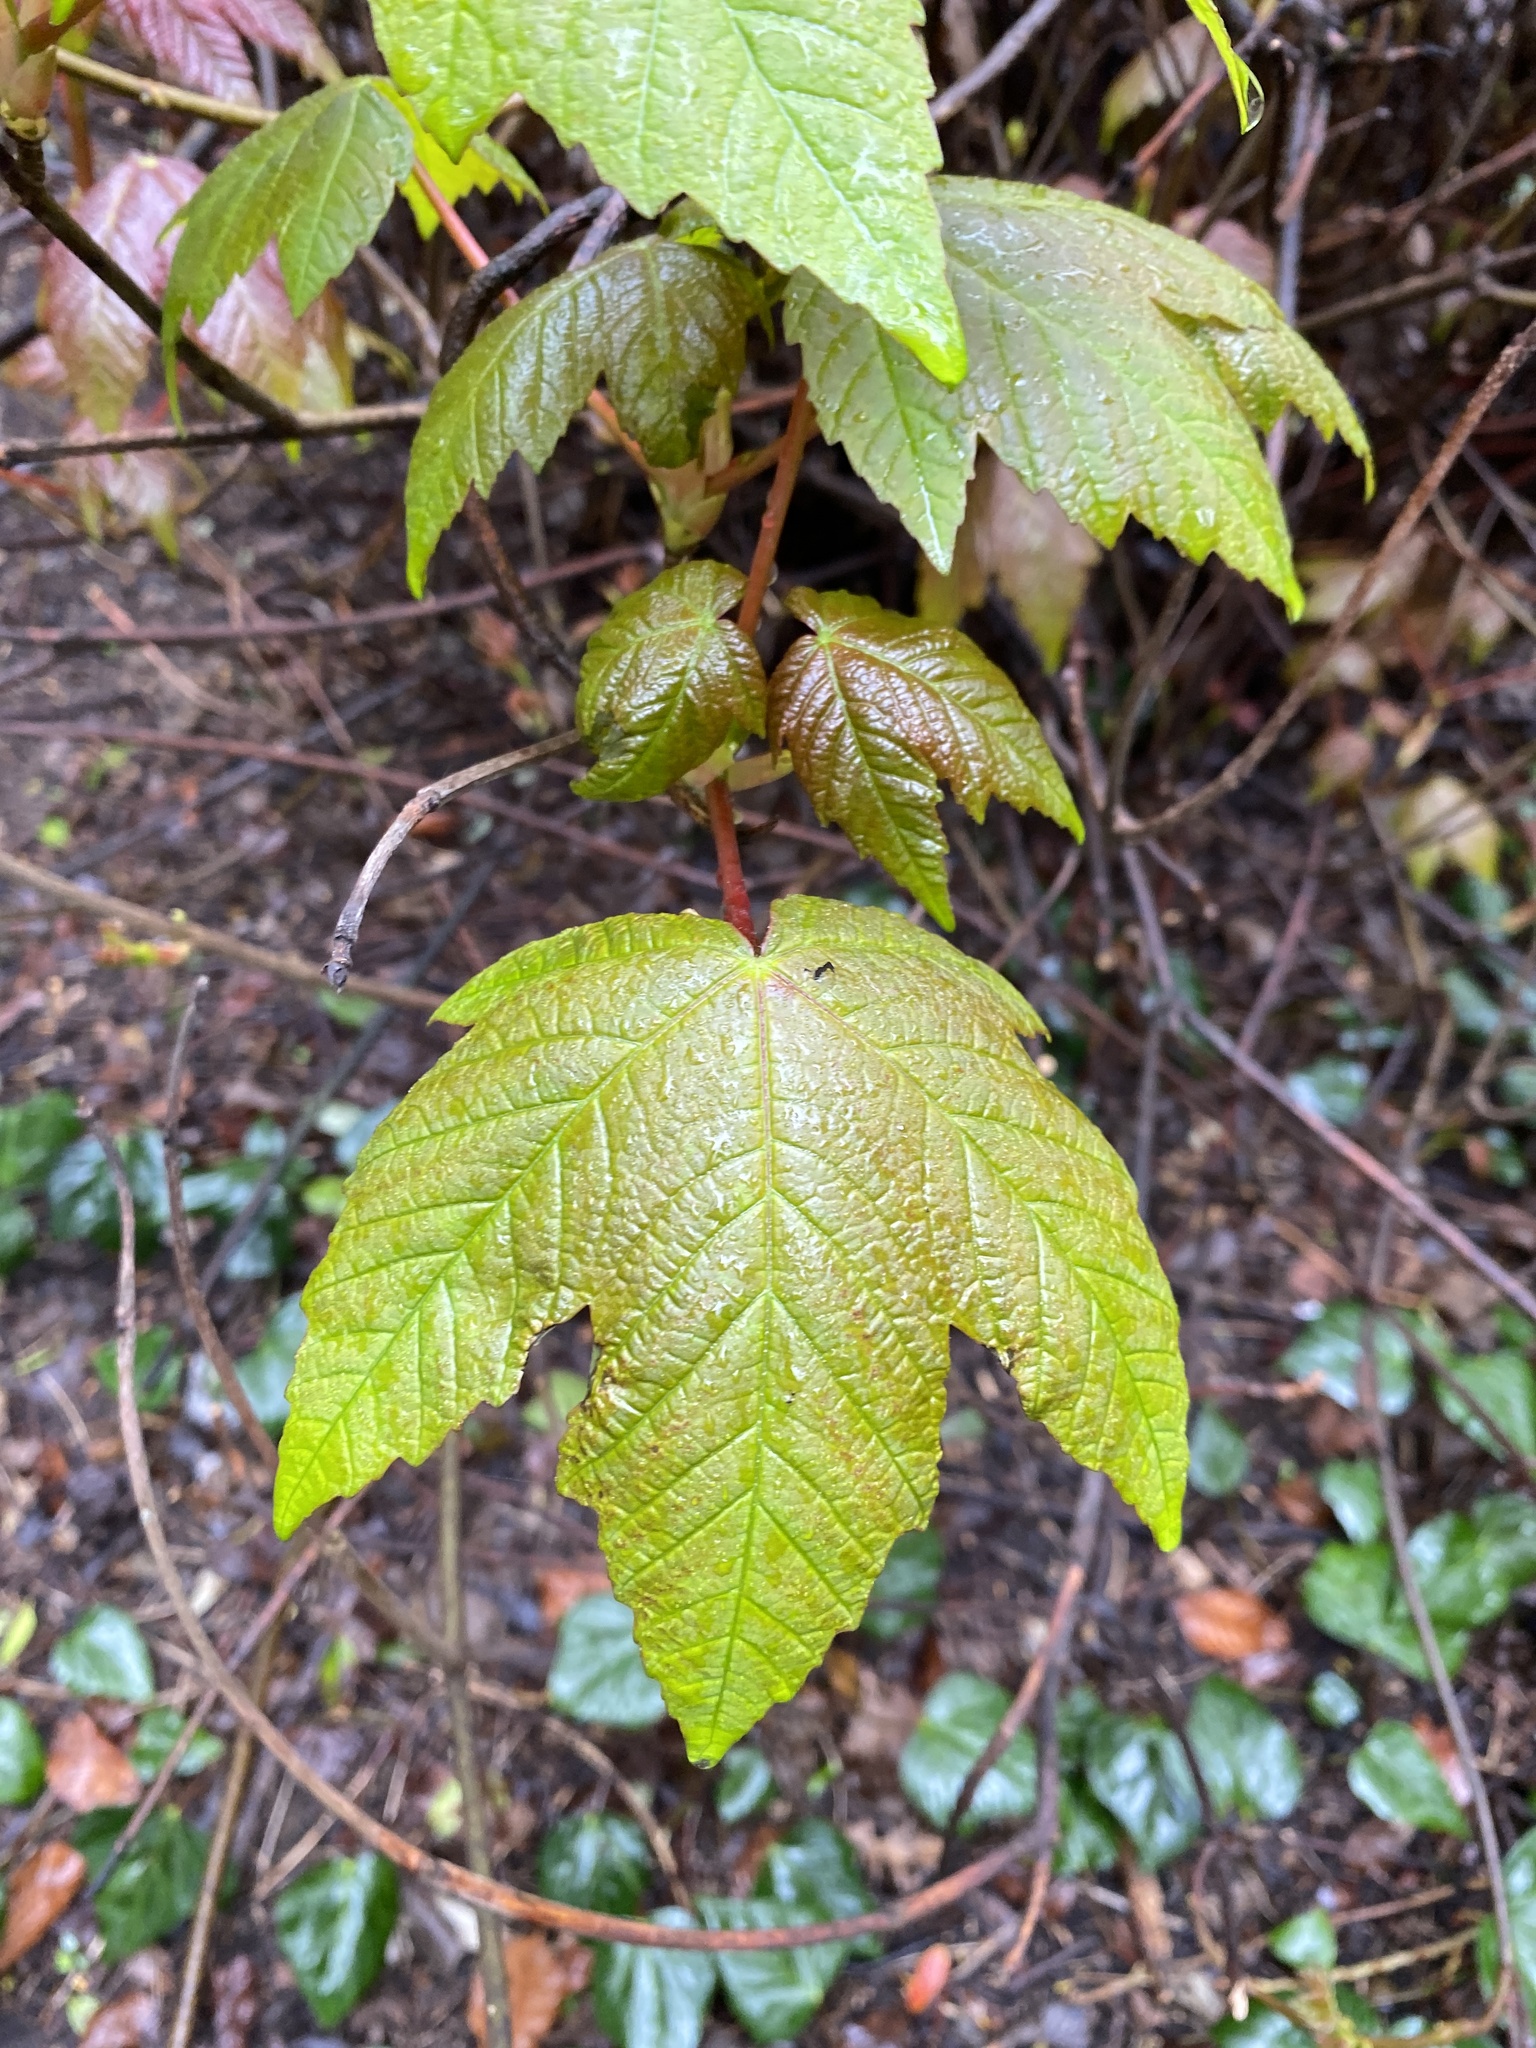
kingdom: Plantae
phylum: Tracheophyta
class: Magnoliopsida
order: Sapindales
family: Sapindaceae
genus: Acer
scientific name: Acer pseudoplatanus
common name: Sycamore
